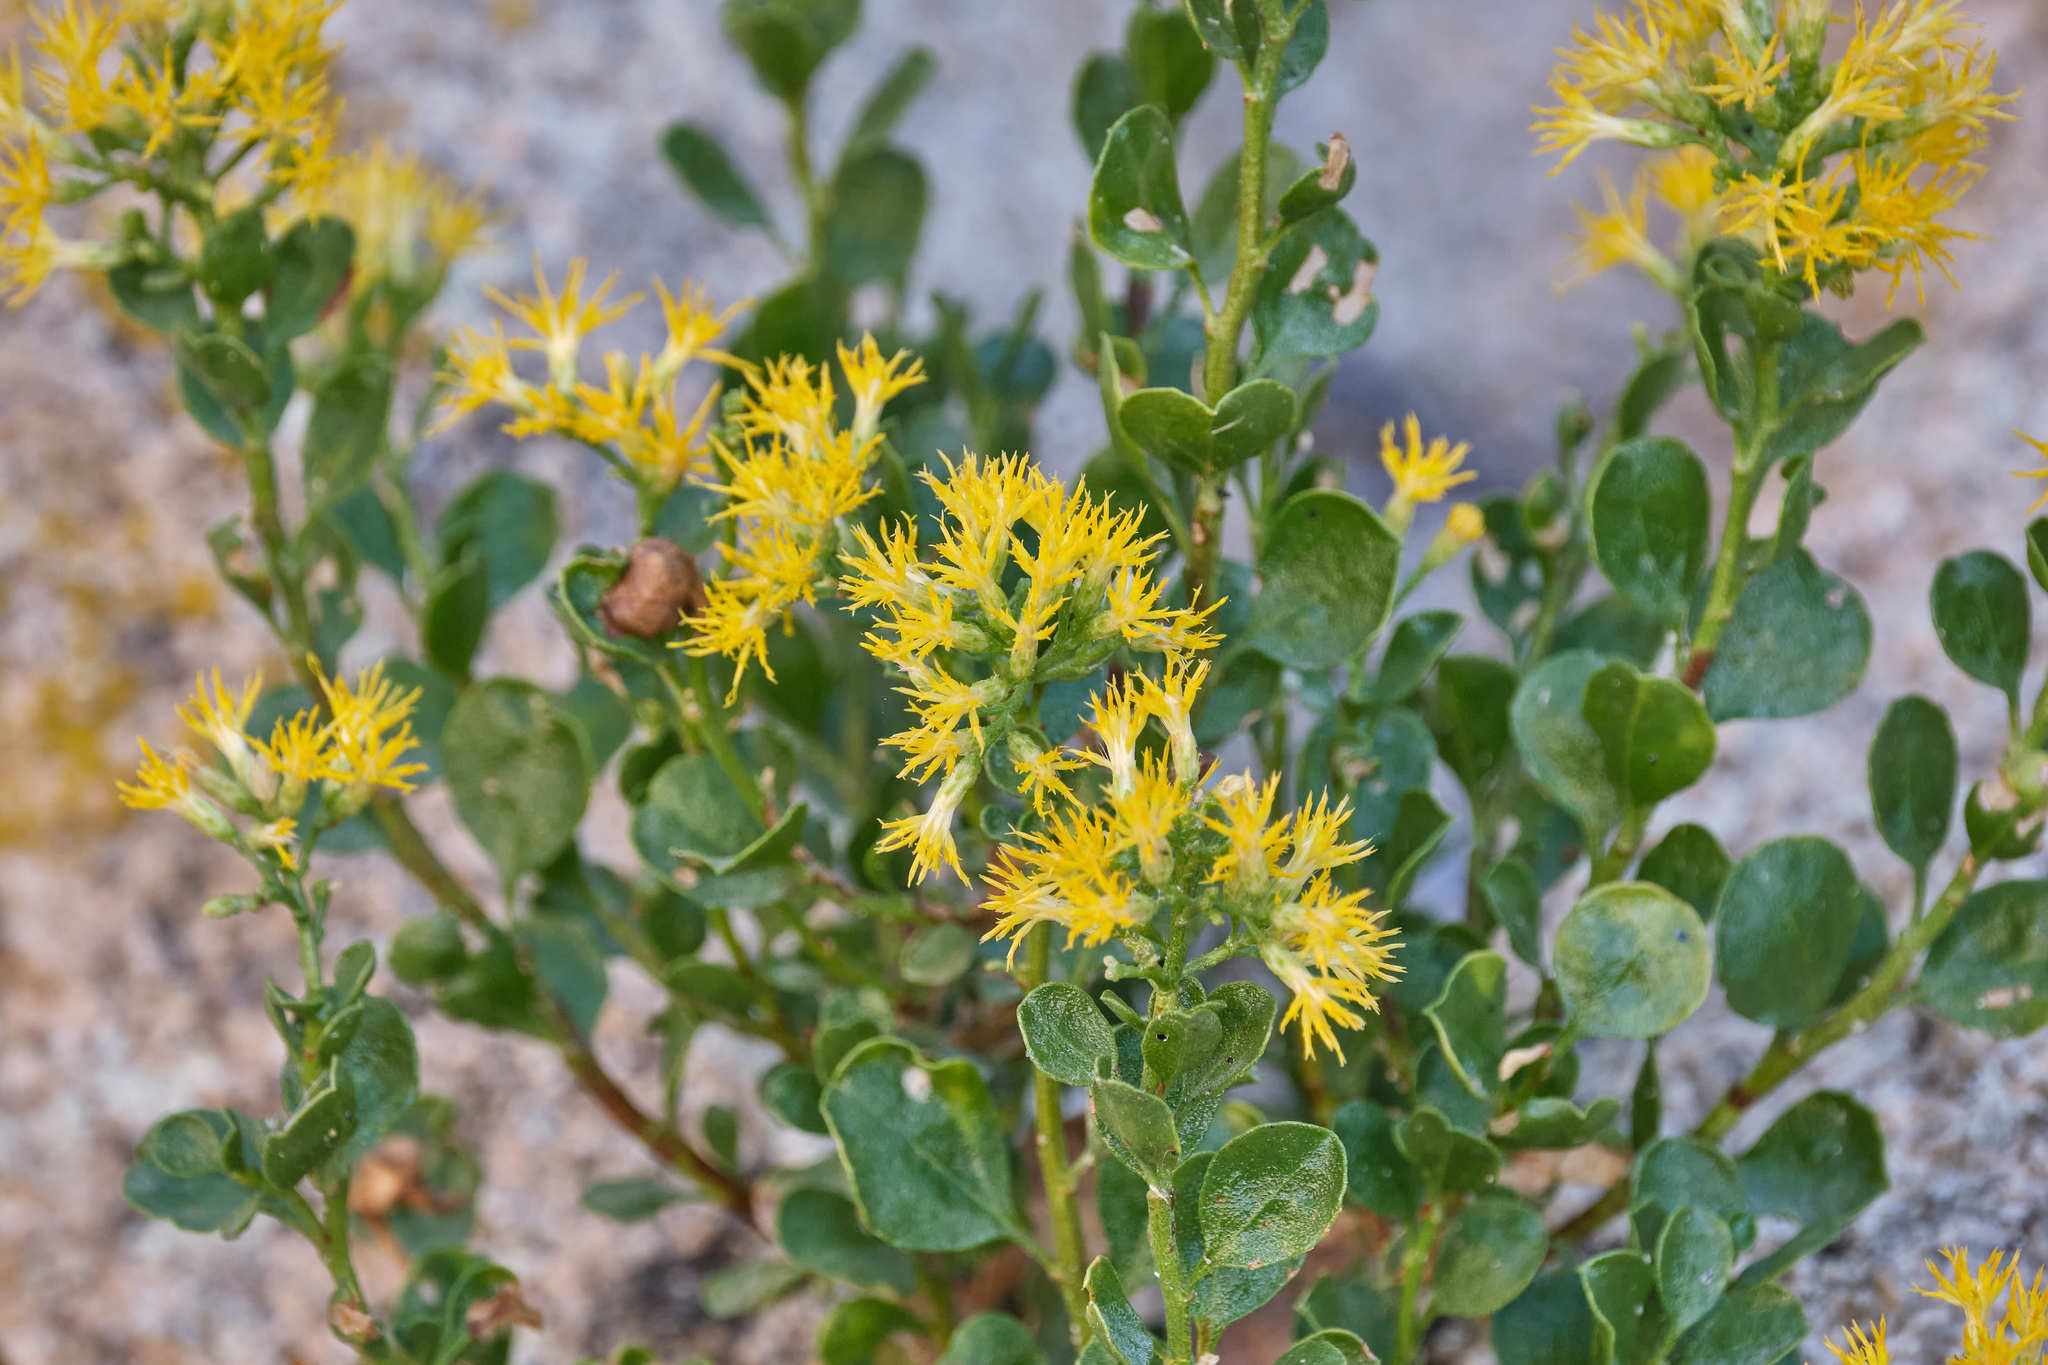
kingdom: Plantae
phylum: Tracheophyta
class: Magnoliopsida
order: Asterales
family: Asteraceae
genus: Ericameria
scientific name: Ericameria cuneata
